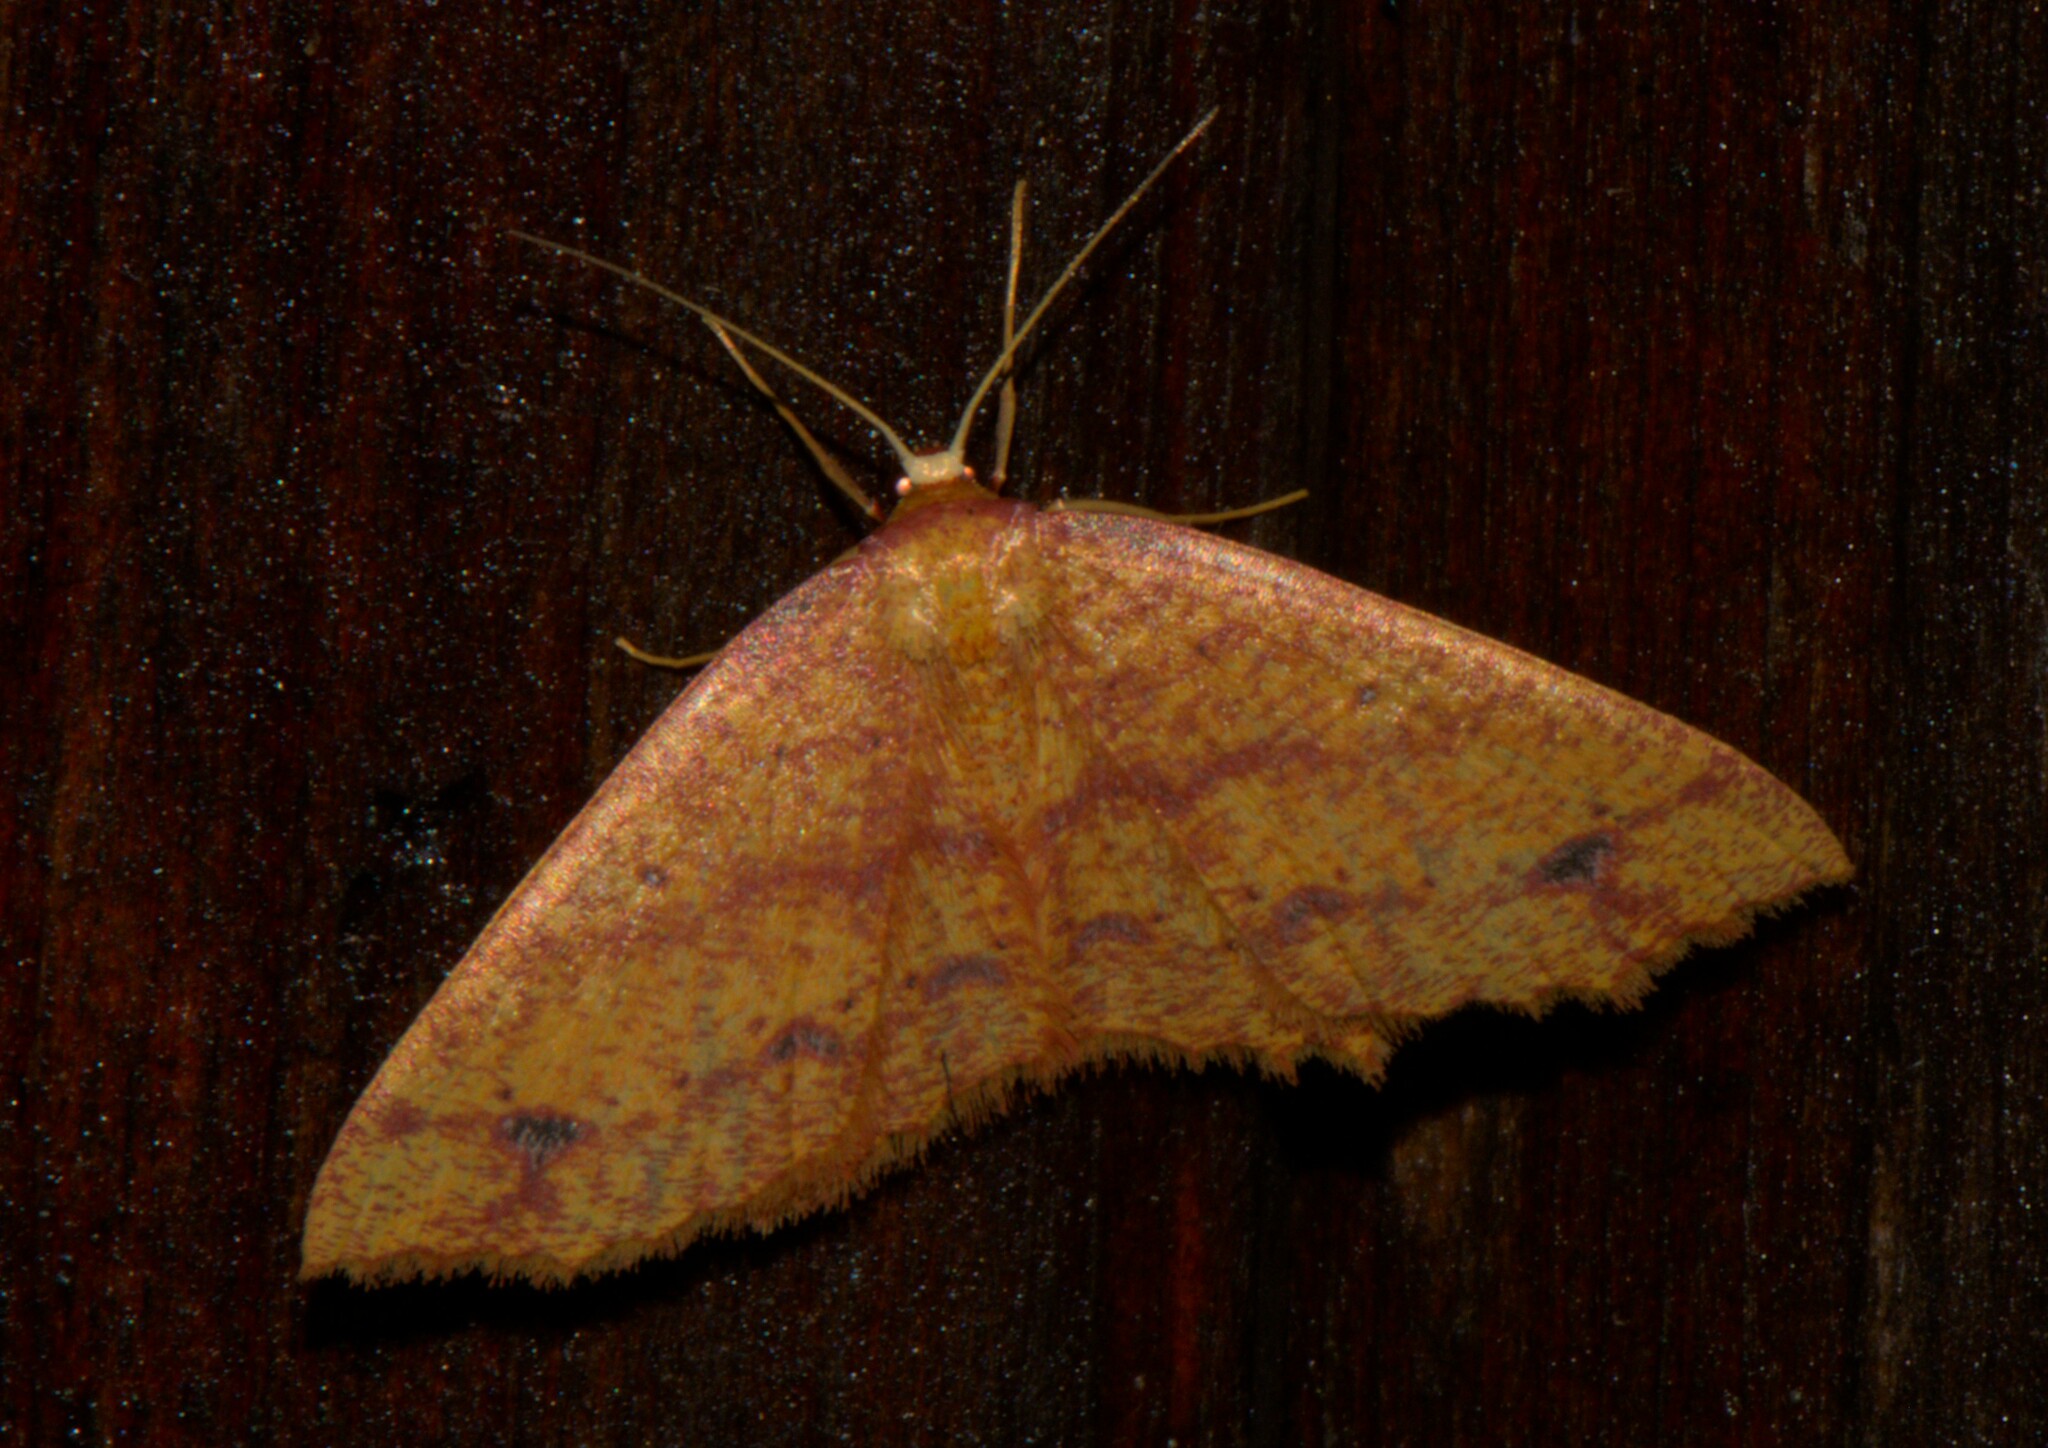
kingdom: Animalia
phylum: Arthropoda
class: Insecta
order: Lepidoptera
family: Geometridae
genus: Synegiodes
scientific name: Synegiodes hyriaria
